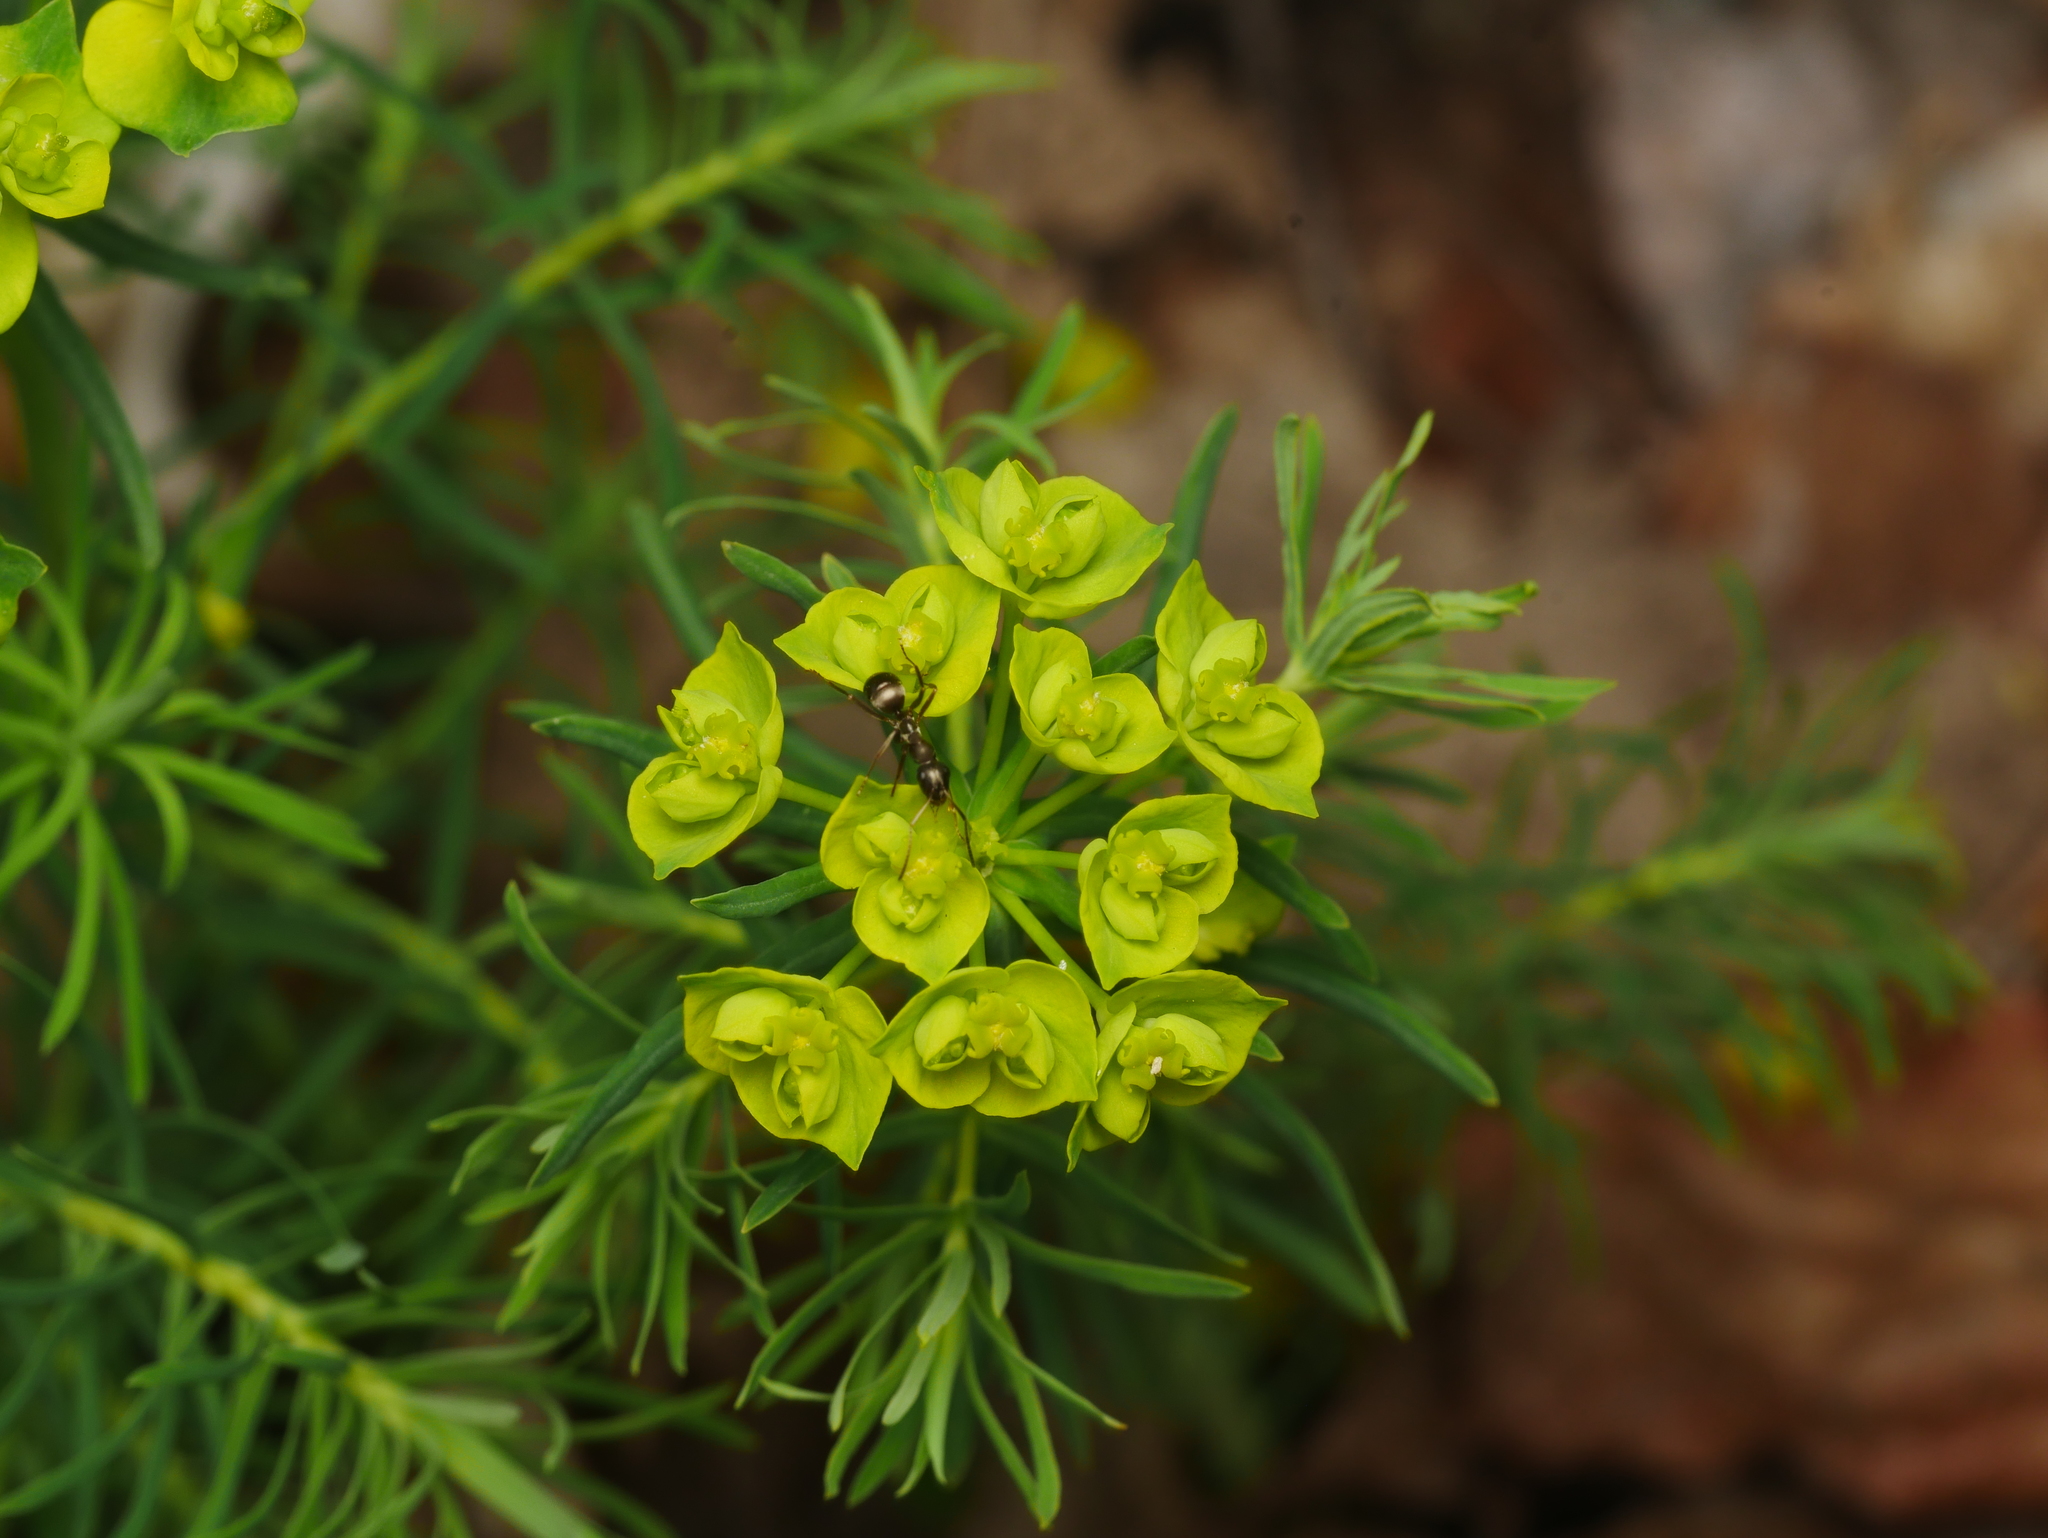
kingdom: Plantae
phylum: Tracheophyta
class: Magnoliopsida
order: Malpighiales
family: Euphorbiaceae
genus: Euphorbia
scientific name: Euphorbia cyparissias
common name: Cypress spurge
